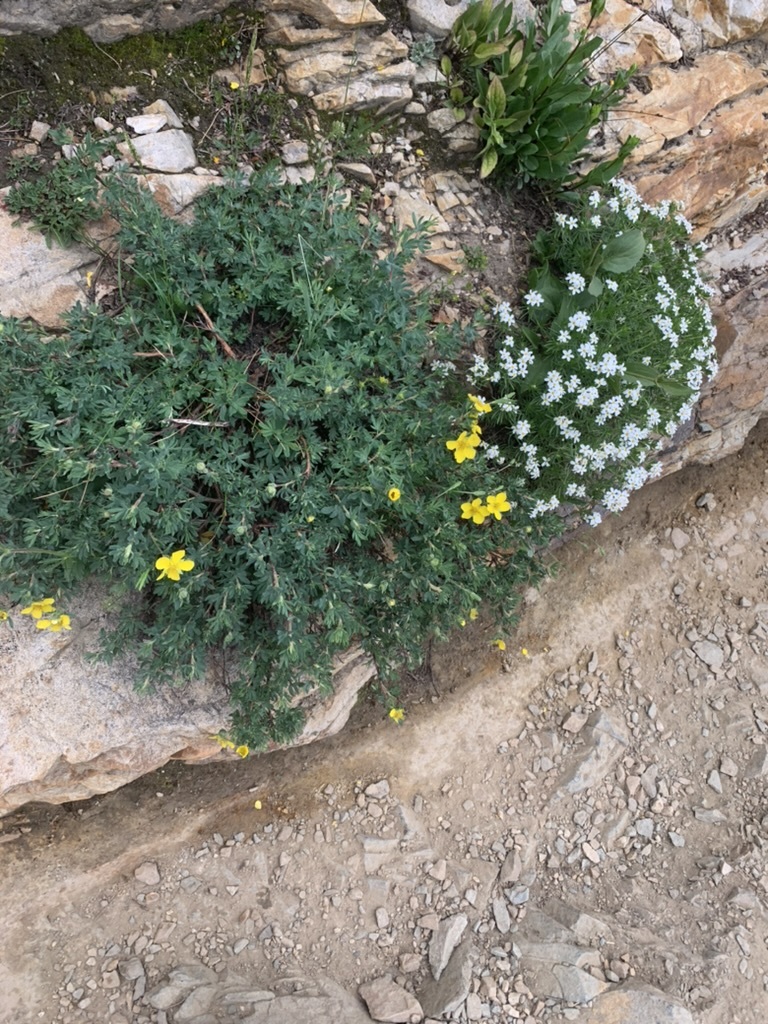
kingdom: Plantae
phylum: Tracheophyta
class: Magnoliopsida
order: Rosales
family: Rosaceae
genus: Dasiphora
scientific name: Dasiphora fruticosa
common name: Shrubby cinquefoil
